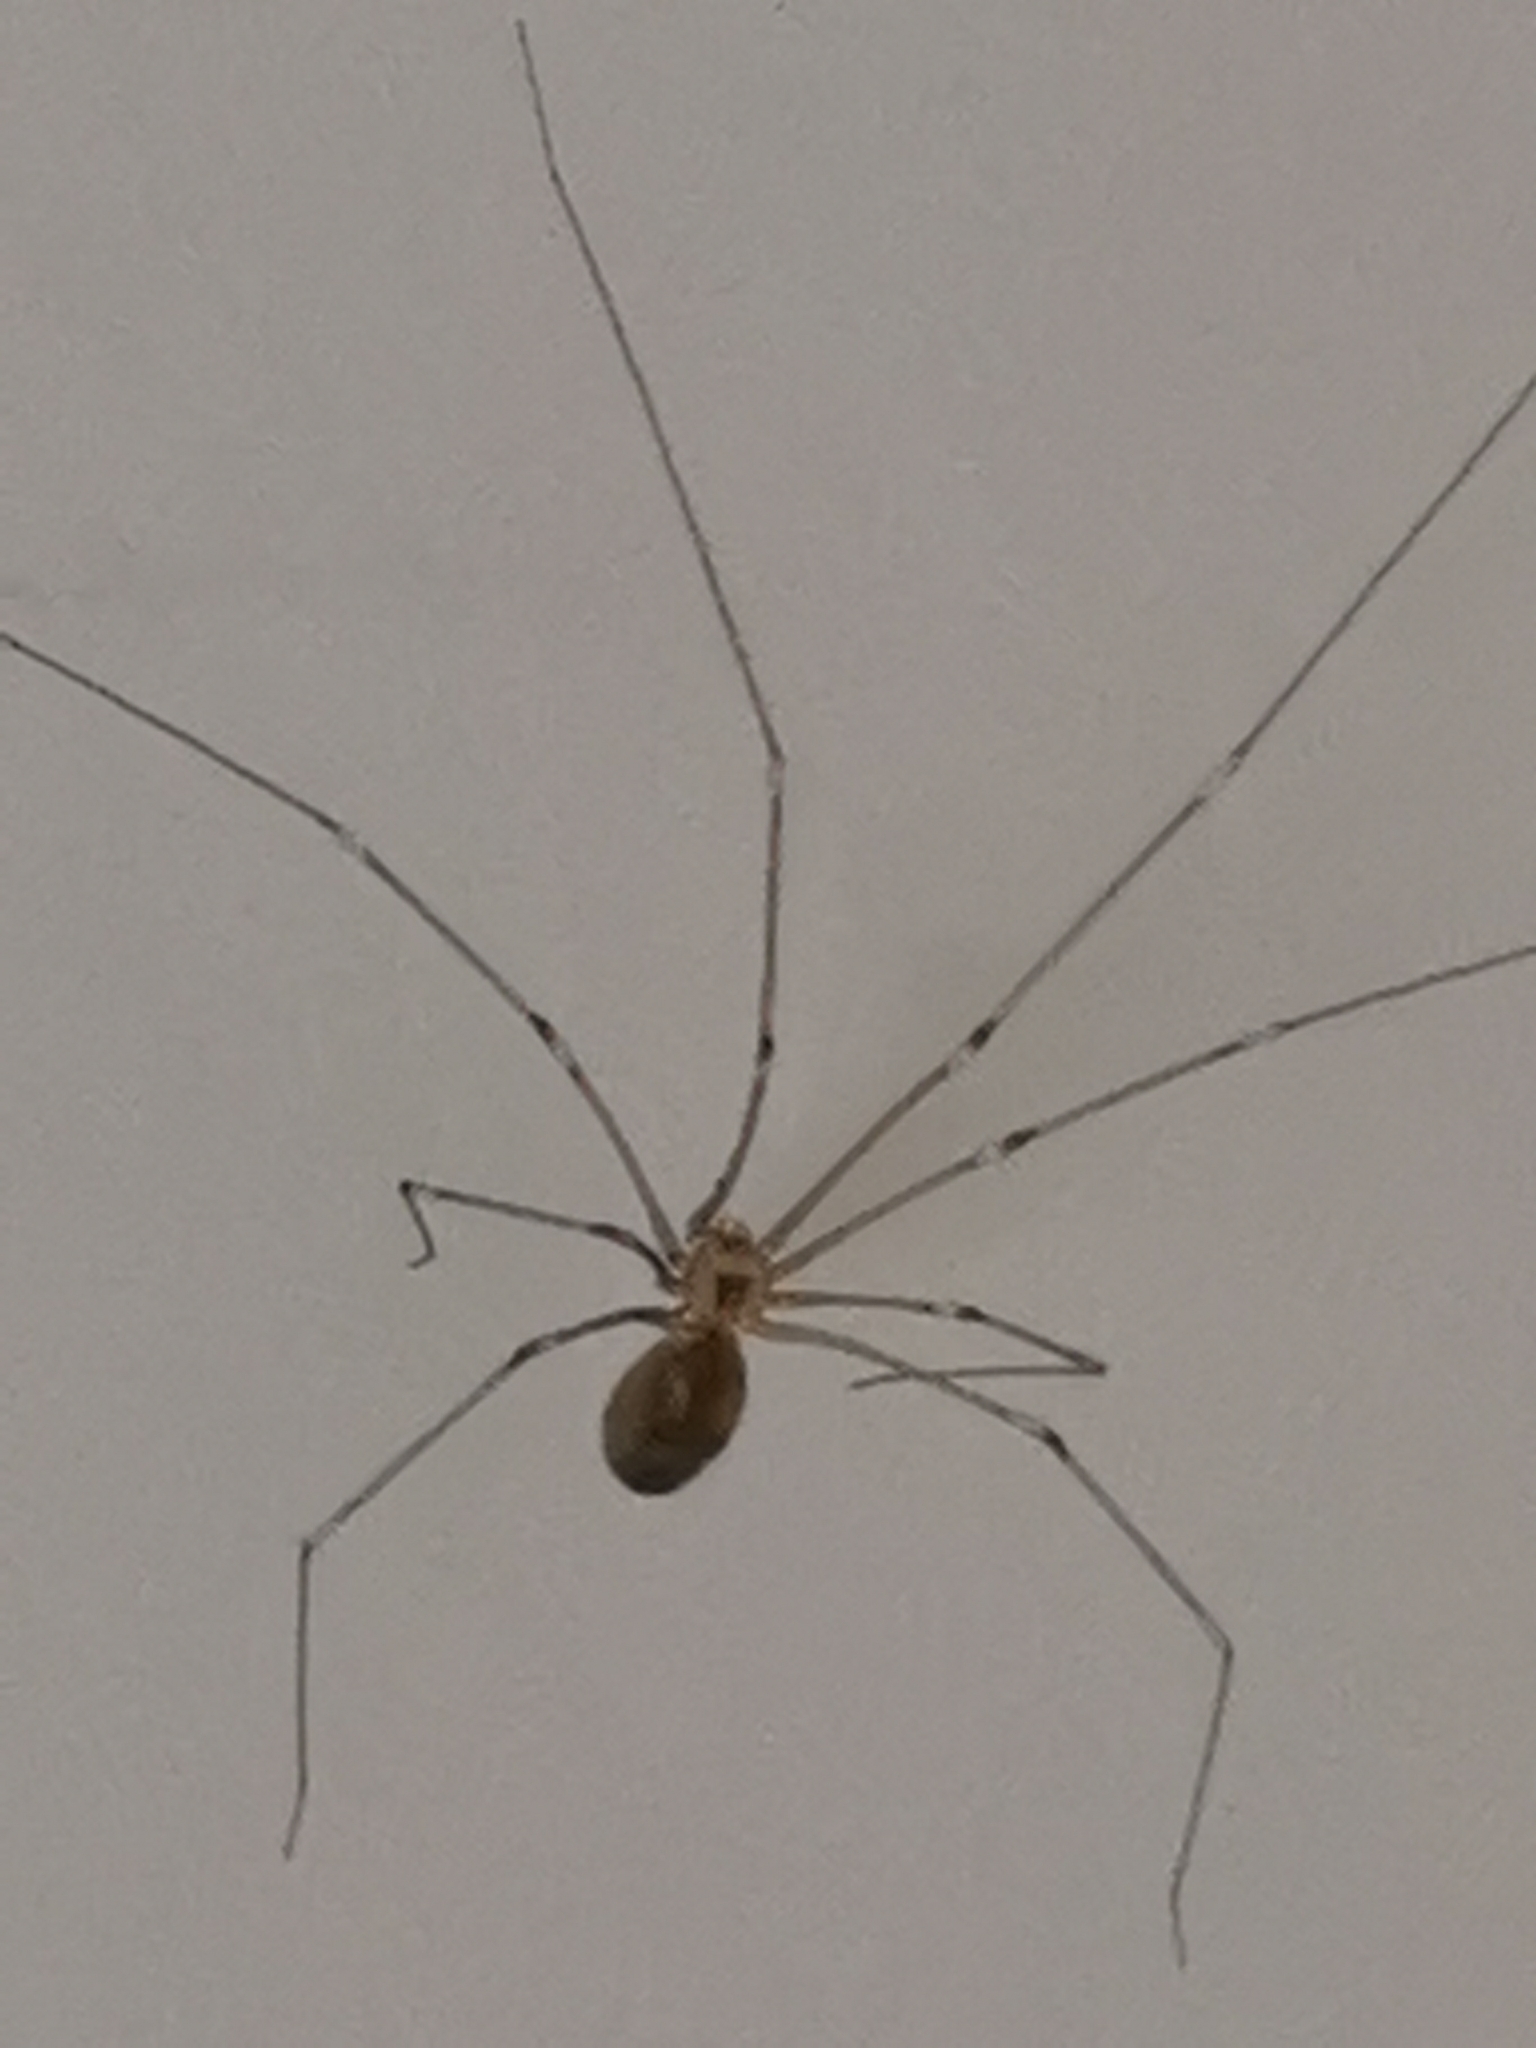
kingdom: Animalia
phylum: Arthropoda
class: Arachnida
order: Araneae
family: Pholcidae
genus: Pholcus
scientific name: Pholcus phalangioides
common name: Longbodied cellar spider
